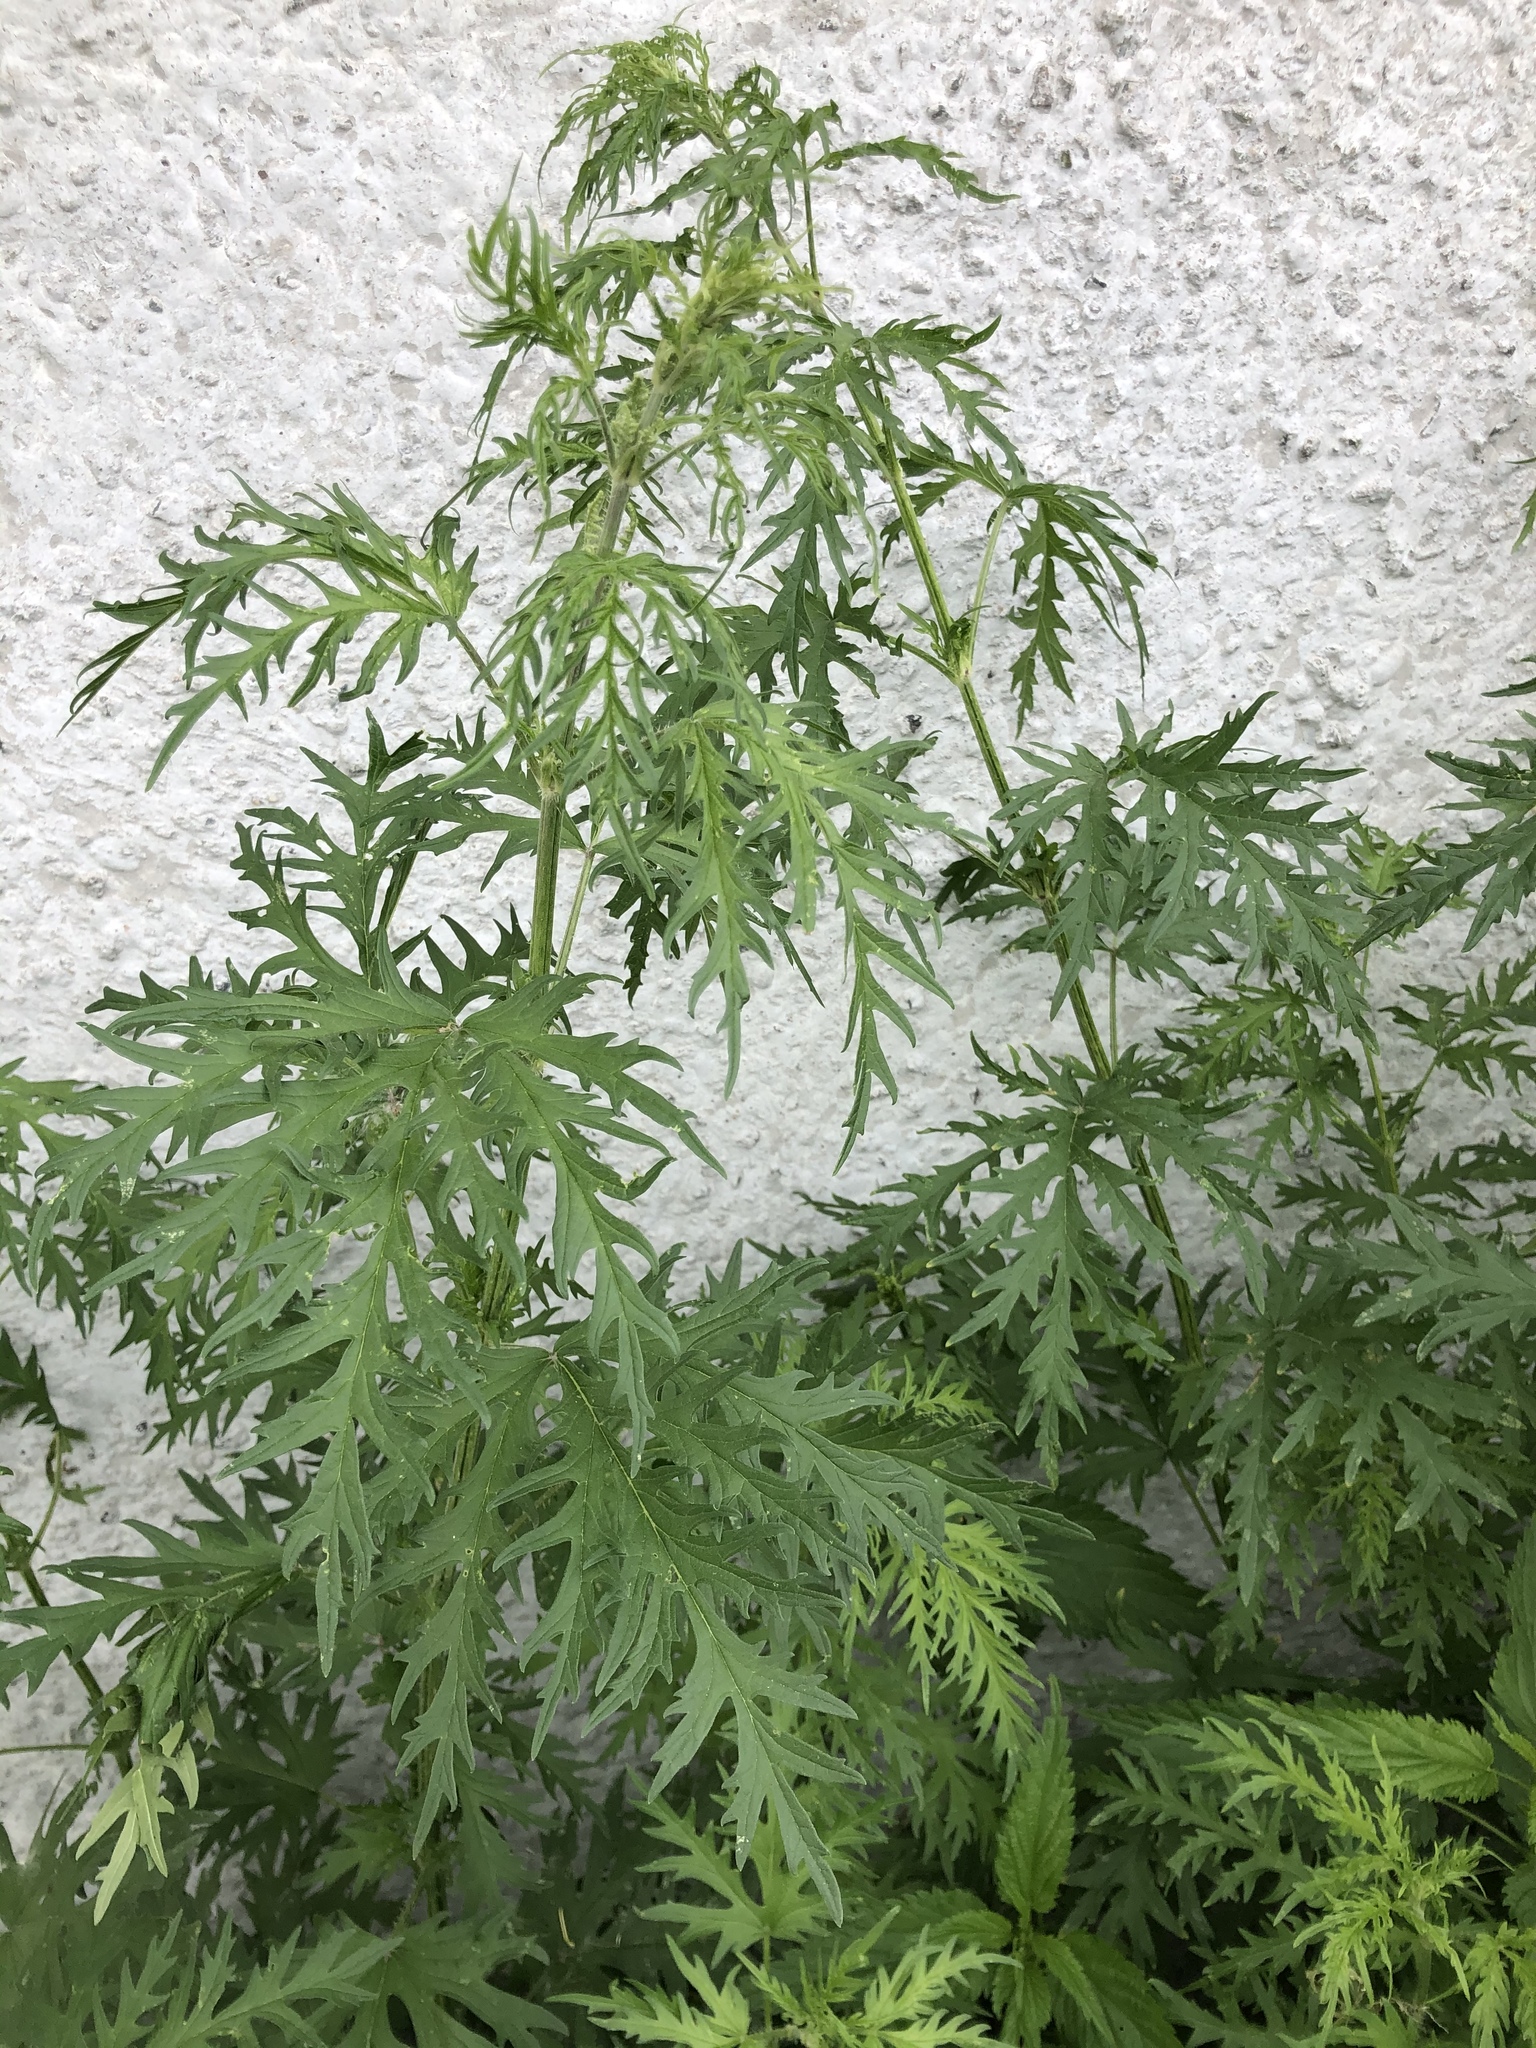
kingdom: Plantae
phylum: Tracheophyta
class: Magnoliopsida
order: Rosales
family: Urticaceae
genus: Urtica
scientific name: Urtica cannabina
